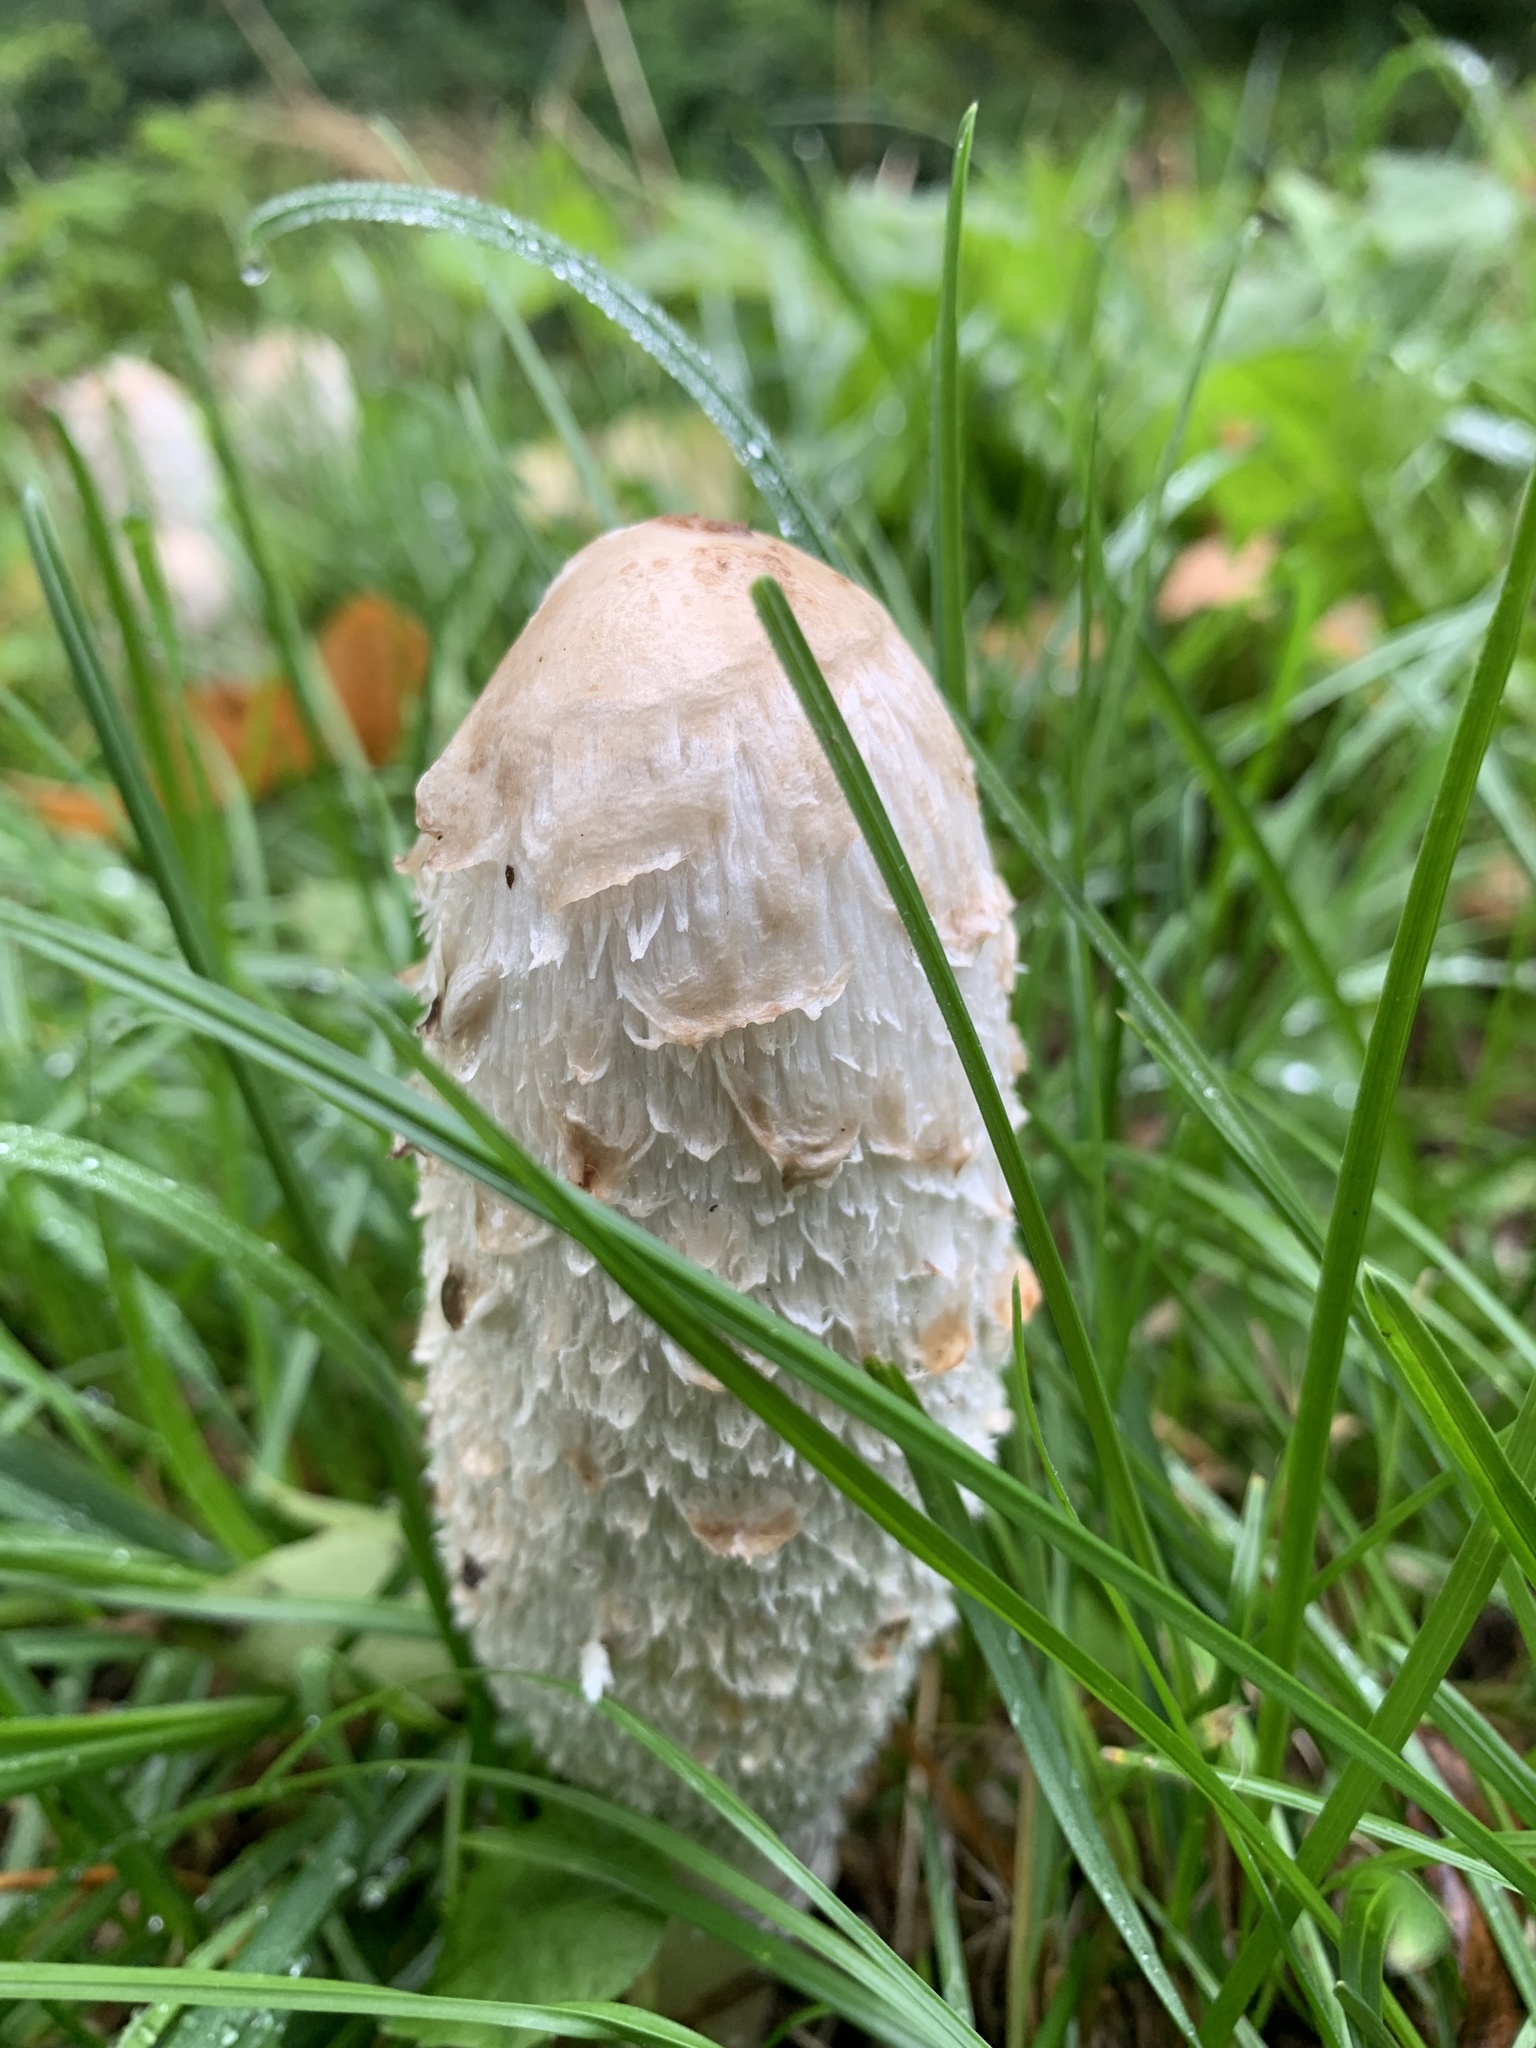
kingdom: Fungi
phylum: Basidiomycota
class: Agaricomycetes
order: Agaricales
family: Agaricaceae
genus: Coprinus
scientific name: Coprinus comatus
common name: Lawyer's wig
